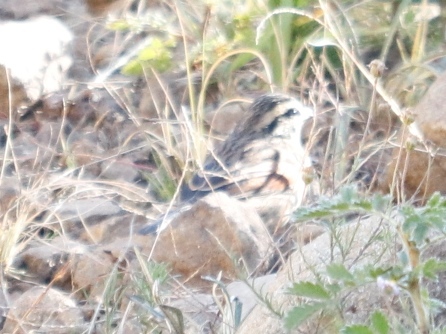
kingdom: Animalia
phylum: Chordata
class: Aves
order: Passeriformes
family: Emberizidae
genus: Emberiza
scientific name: Emberiza capensis
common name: Cape bunting
